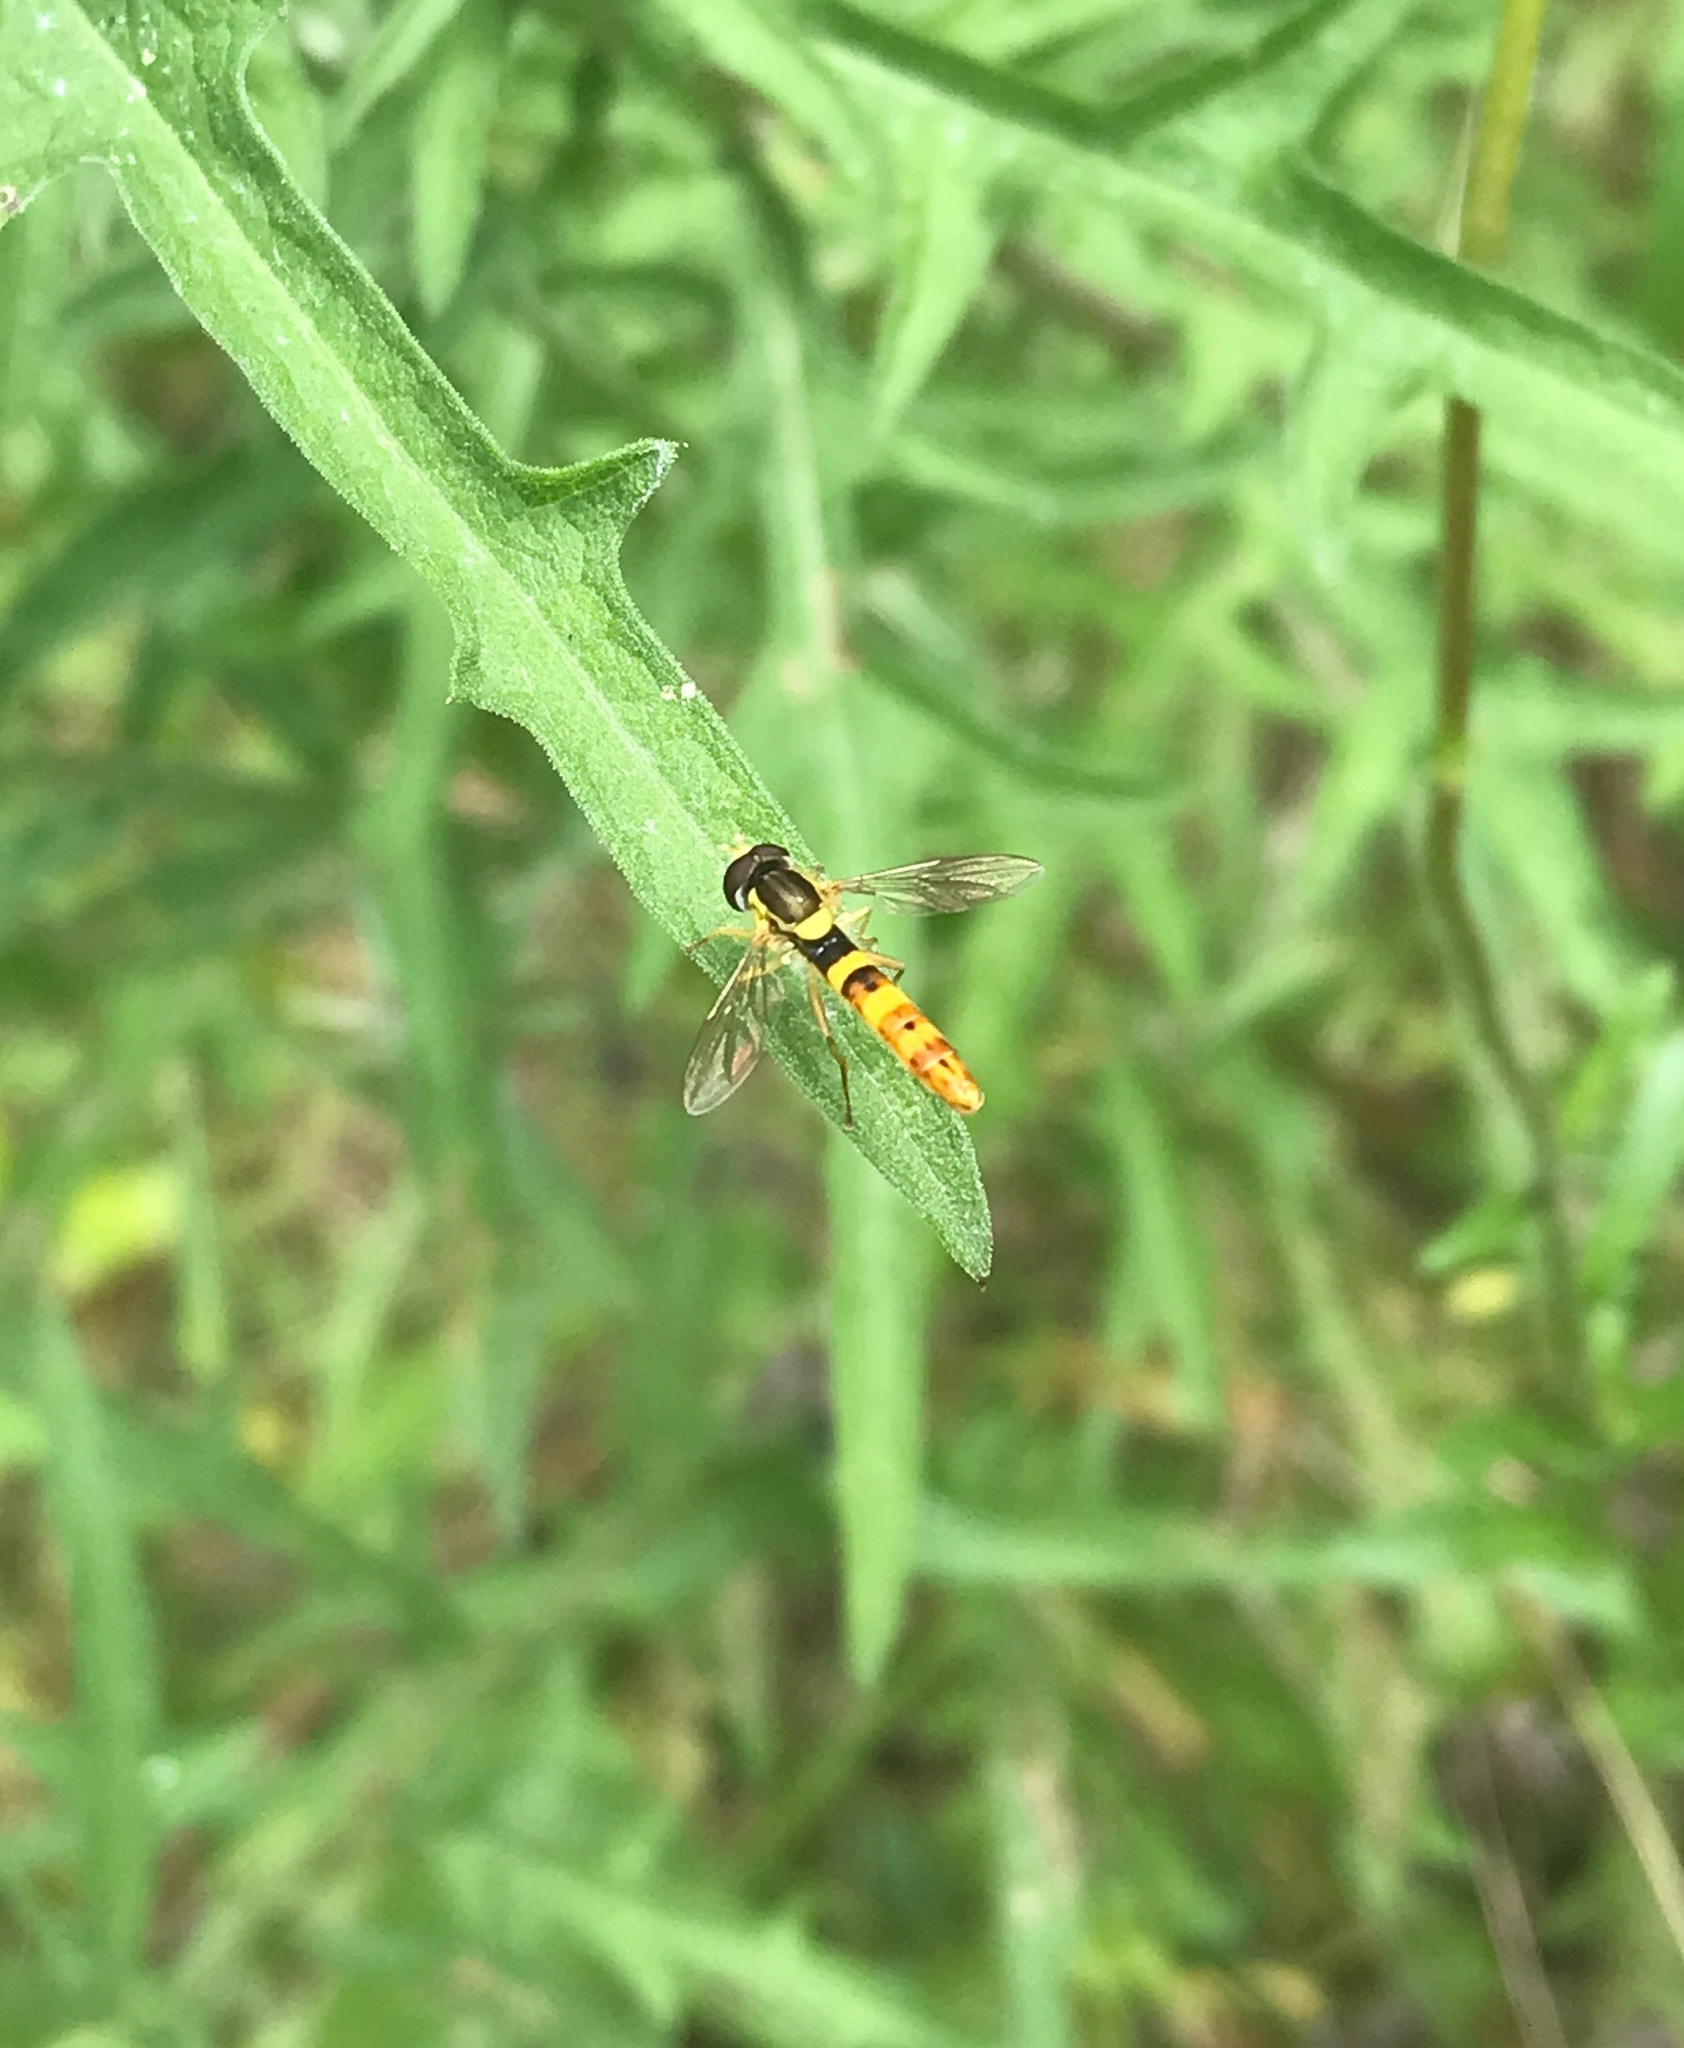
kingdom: Animalia
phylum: Arthropoda
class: Insecta
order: Diptera
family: Syrphidae
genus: Sphaerophoria
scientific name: Sphaerophoria scripta
